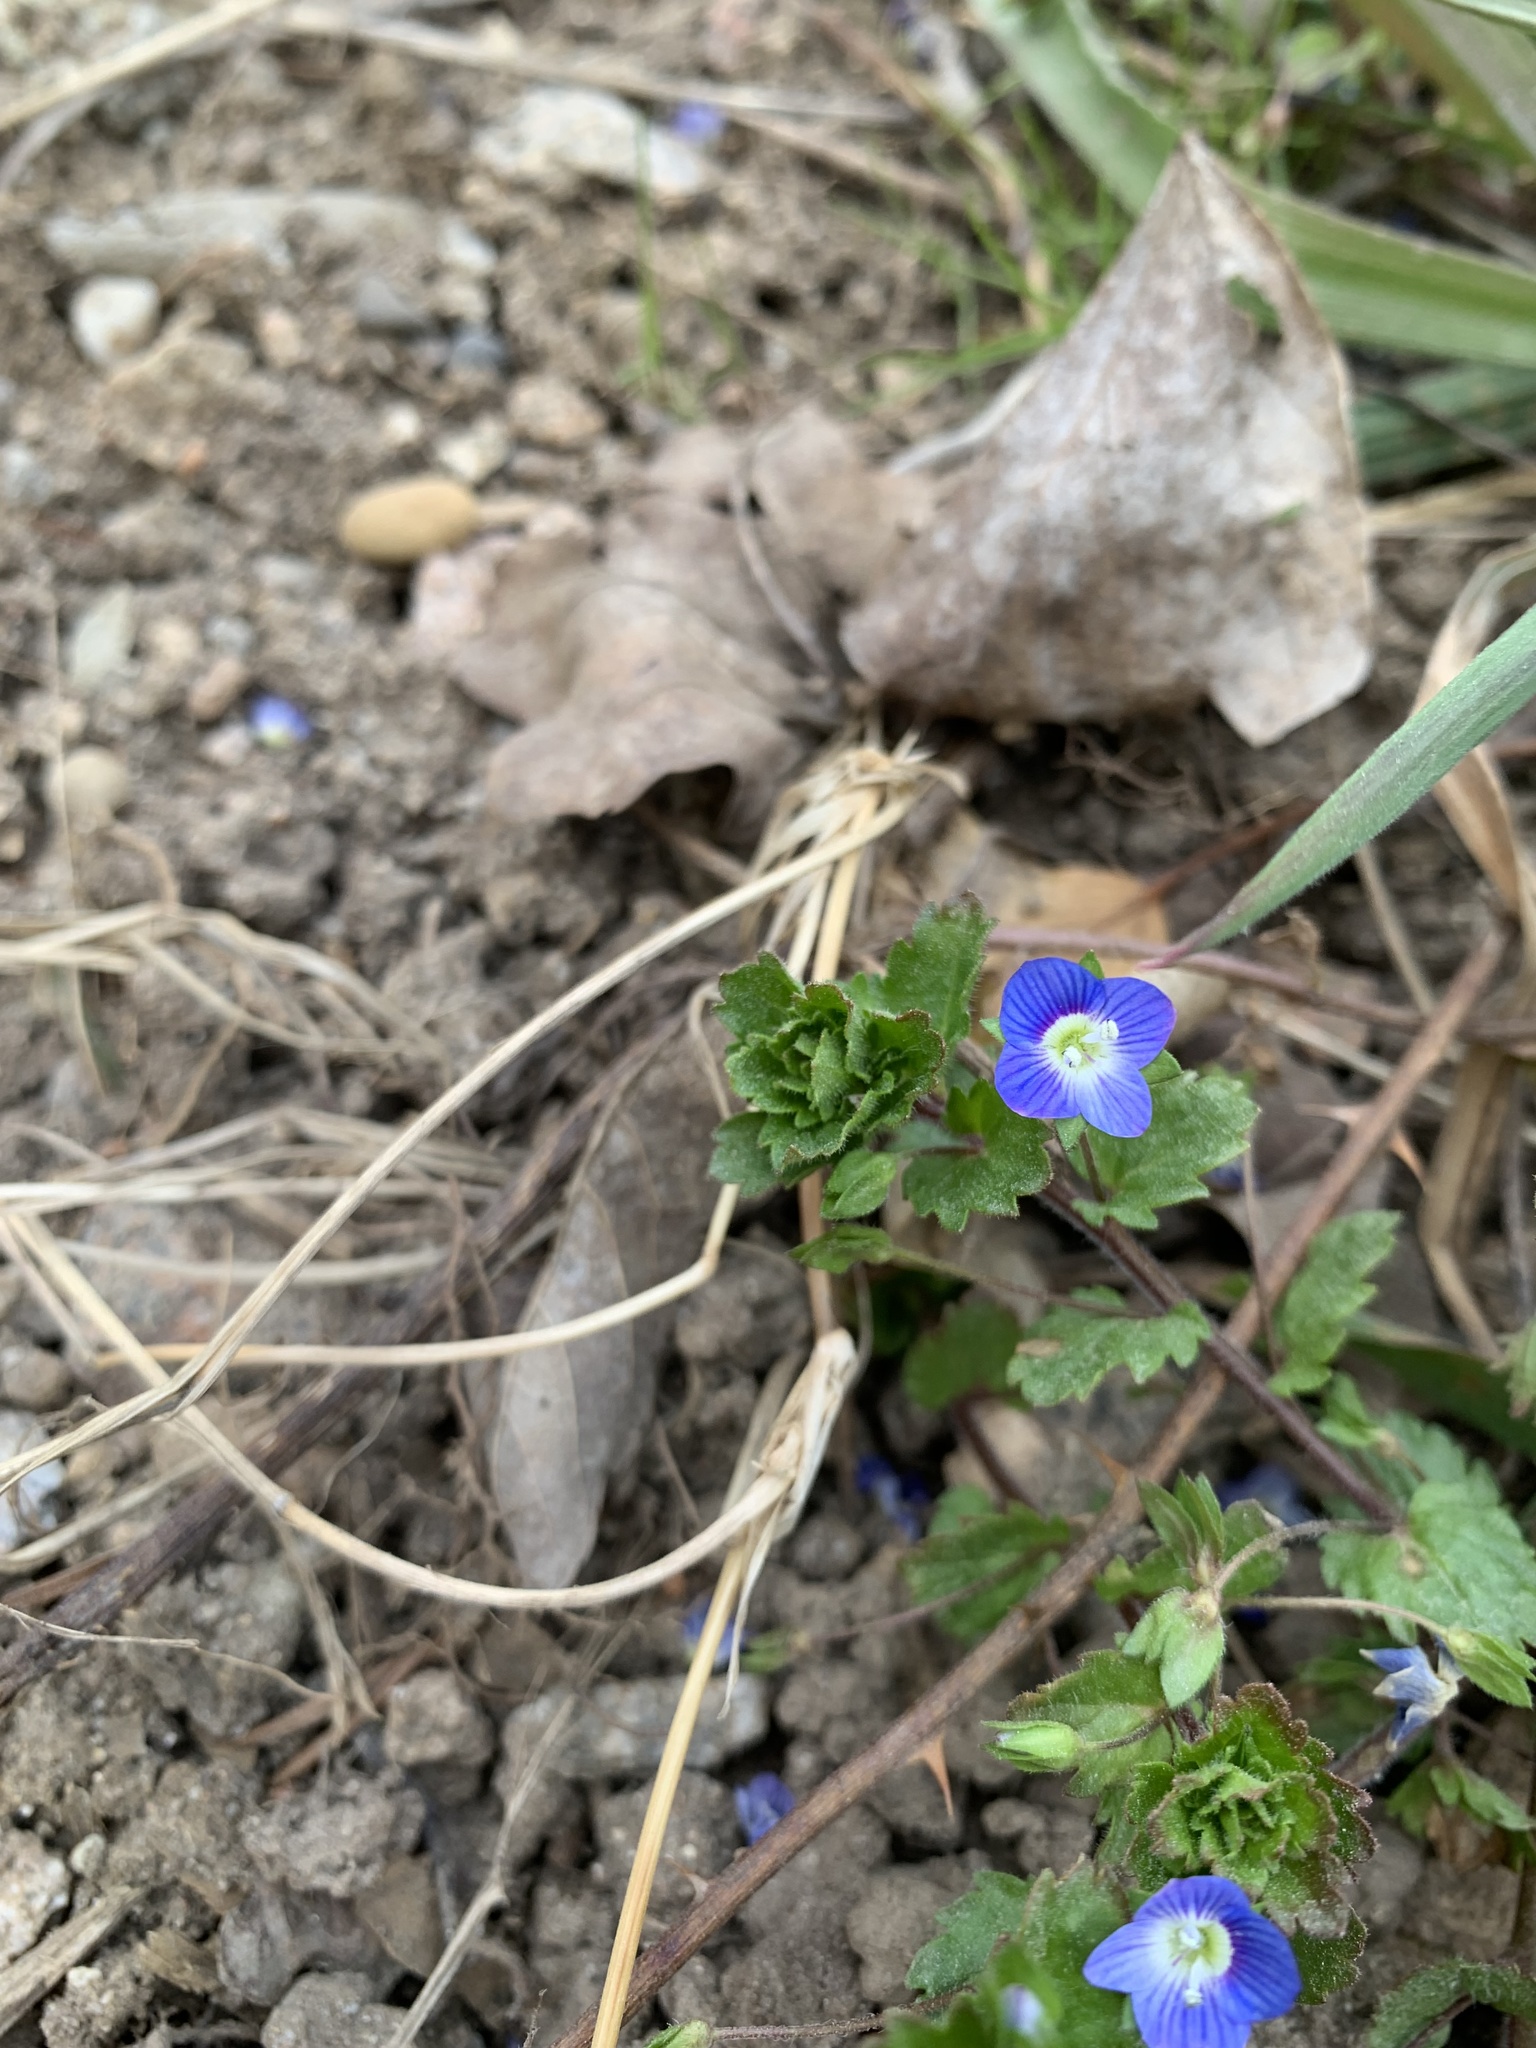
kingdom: Plantae
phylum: Tracheophyta
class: Magnoliopsida
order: Lamiales
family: Plantaginaceae
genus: Veronica
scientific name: Veronica persica
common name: Common field-speedwell
